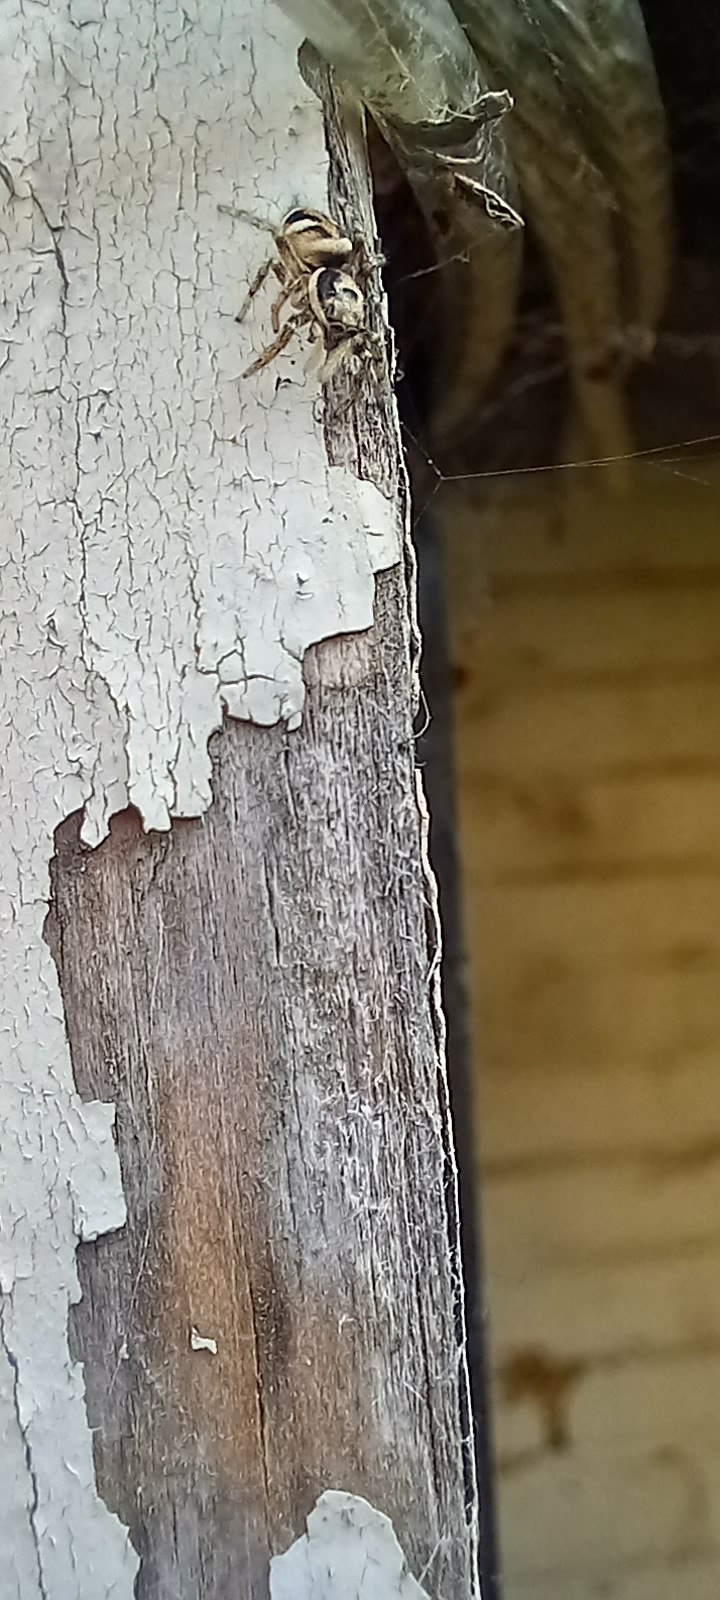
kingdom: Animalia
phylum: Arthropoda
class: Arachnida
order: Araneae
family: Salticidae
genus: Salticus
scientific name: Salticus scenicus
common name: Zebra jumper
